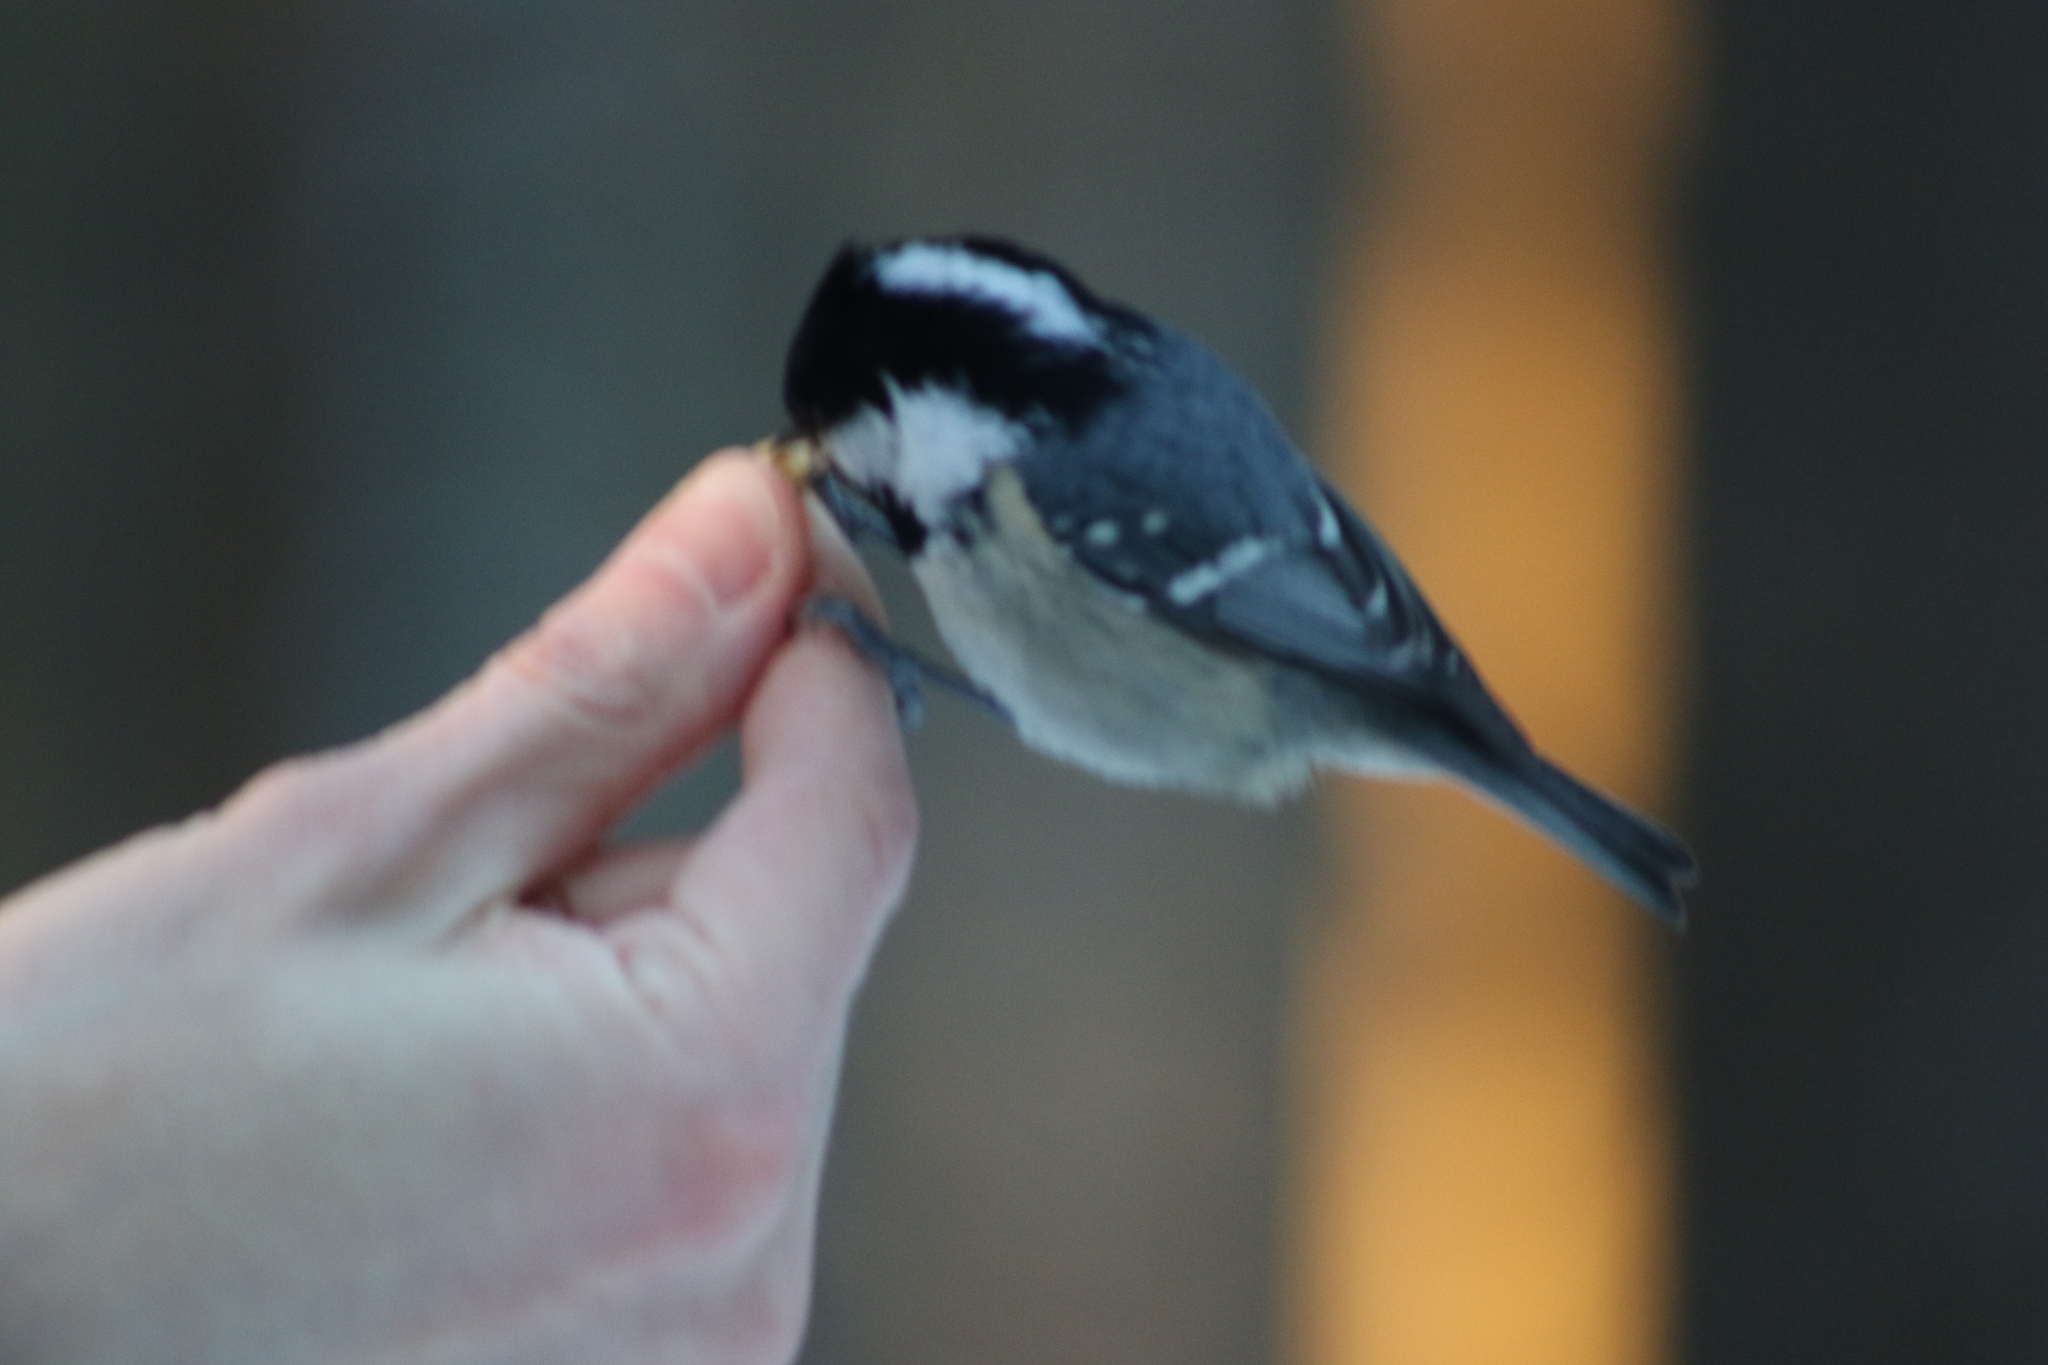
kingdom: Animalia
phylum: Chordata
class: Aves
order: Passeriformes
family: Paridae
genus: Periparus
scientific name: Periparus ater
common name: Coal tit
